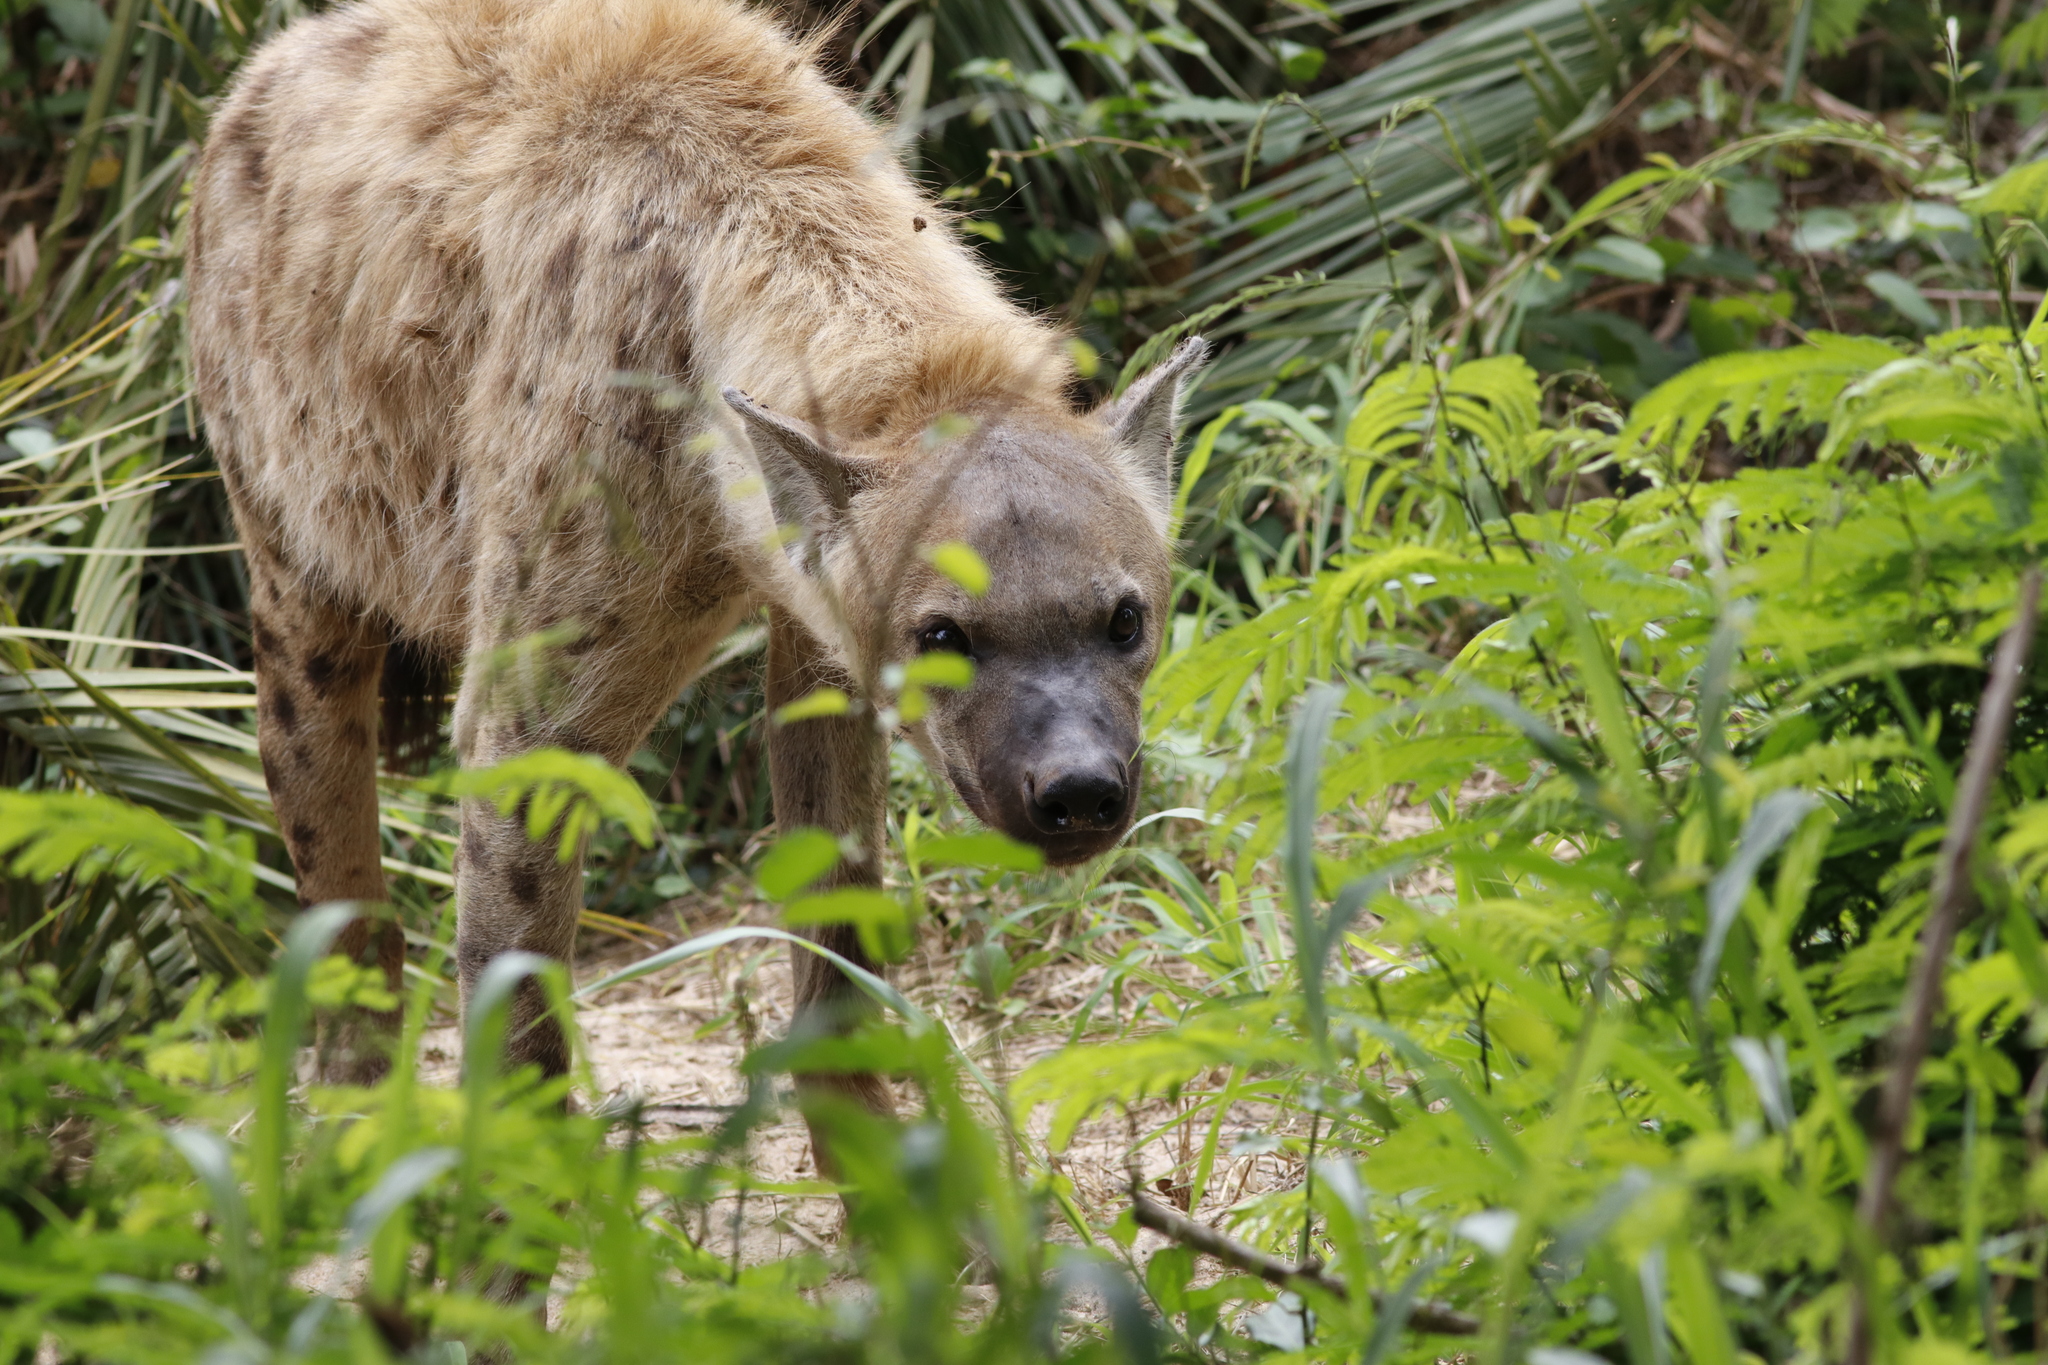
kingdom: Animalia
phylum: Chordata
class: Mammalia
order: Carnivora
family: Hyaenidae
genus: Crocuta
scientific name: Crocuta crocuta
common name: Spotted hyaena
